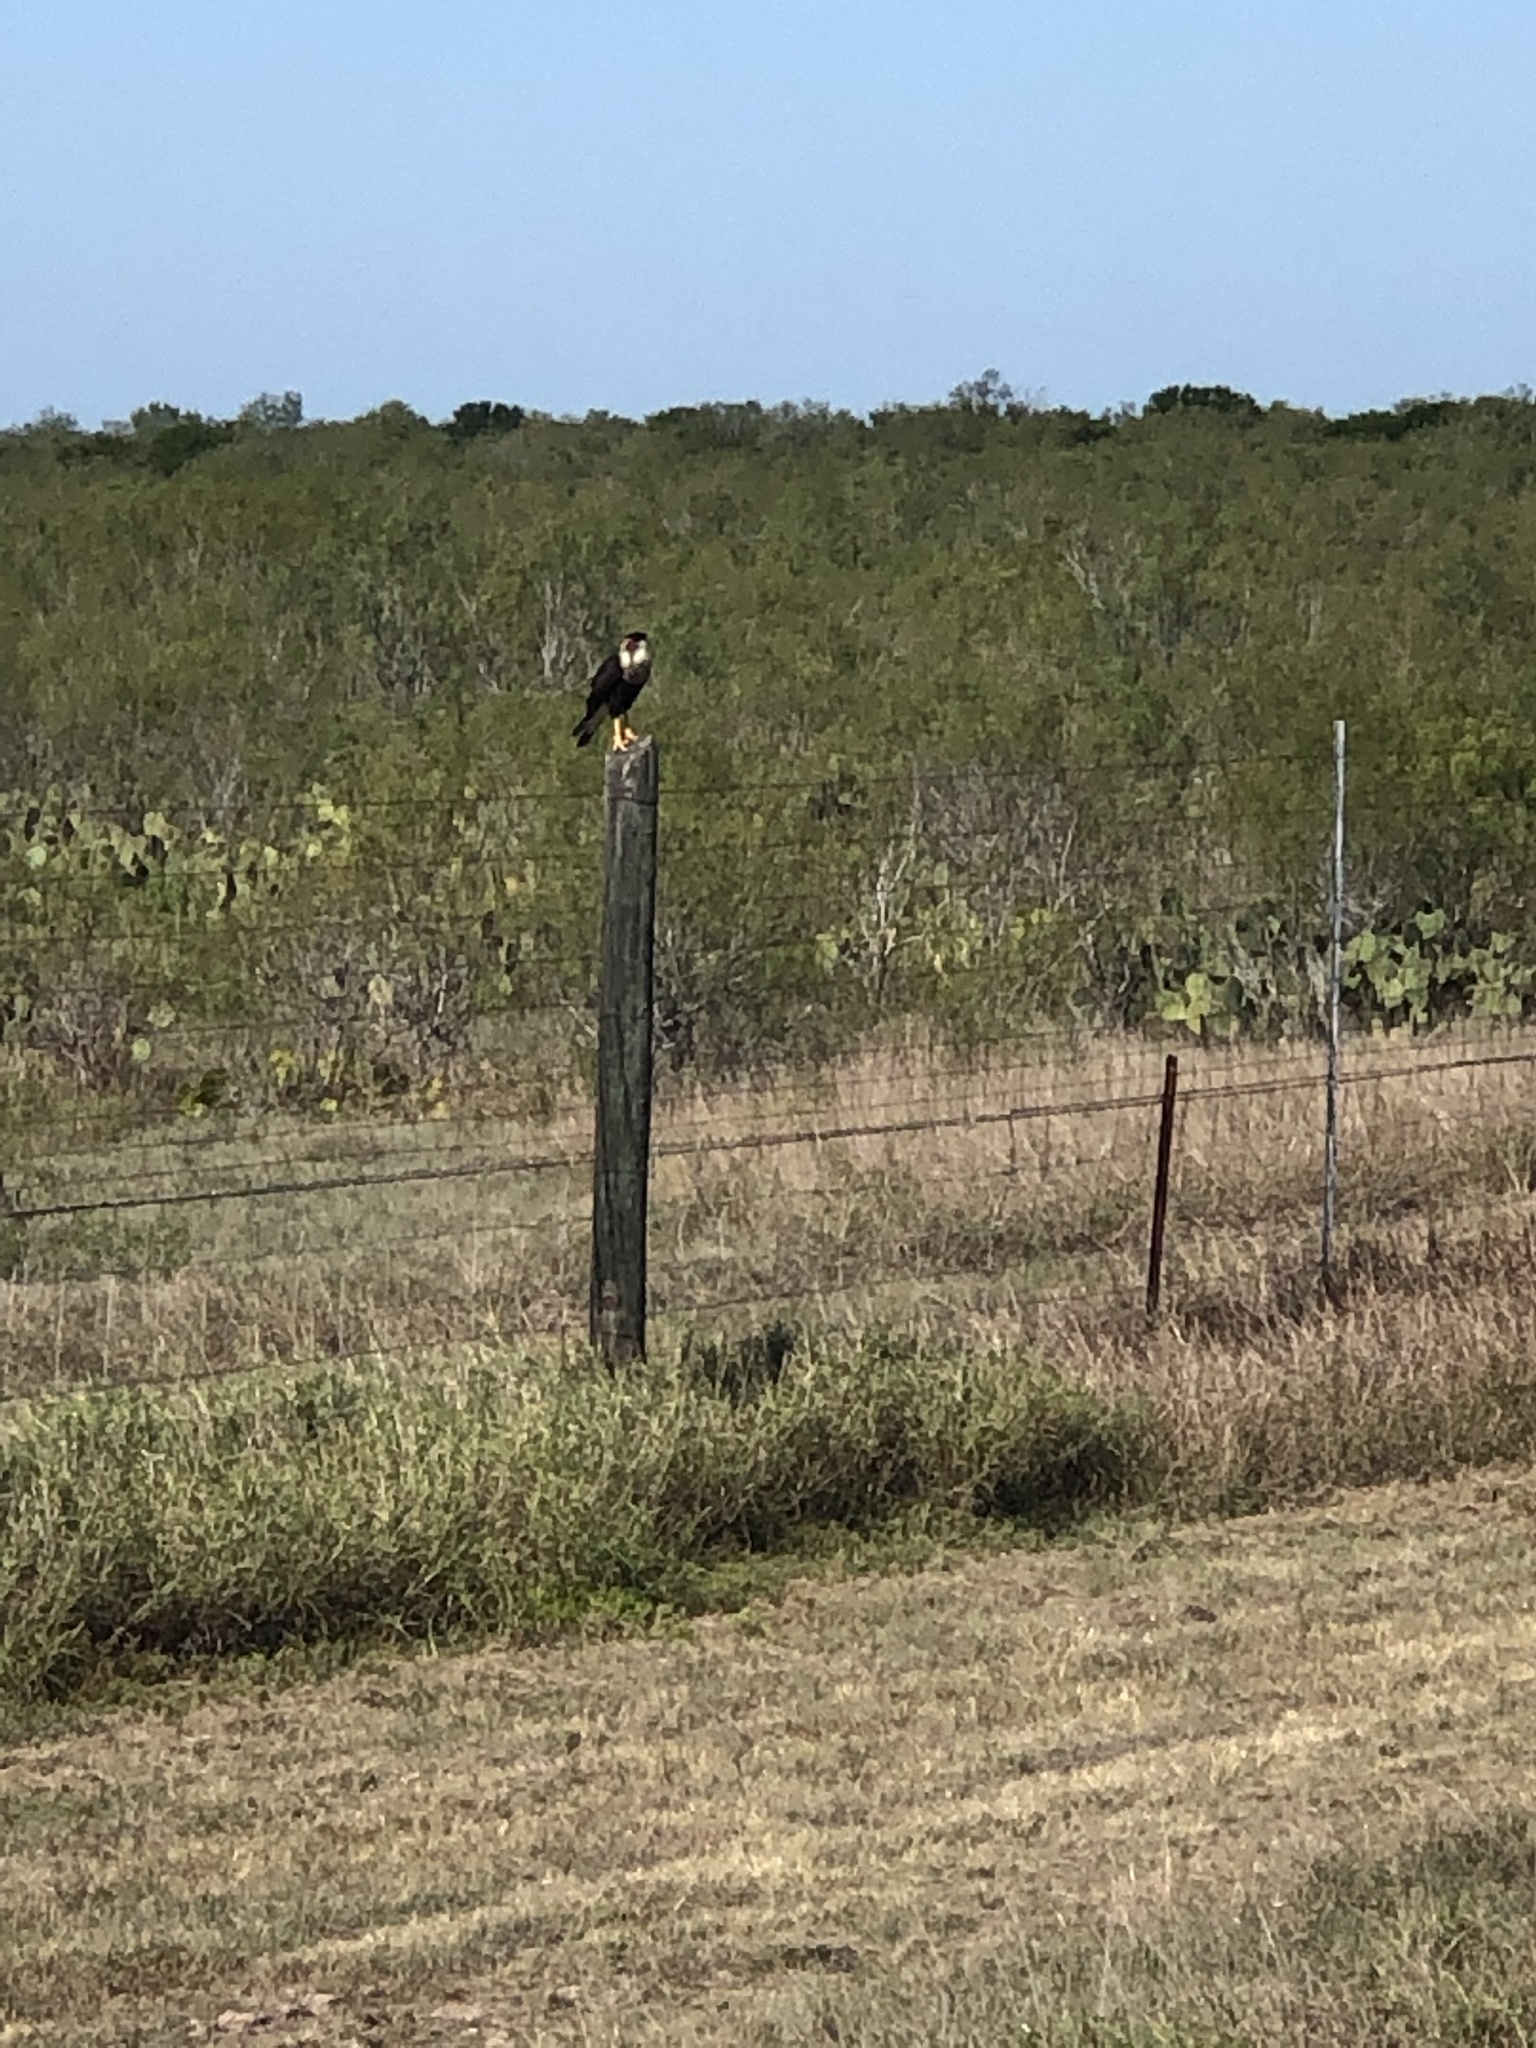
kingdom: Animalia
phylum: Chordata
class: Aves
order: Falconiformes
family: Falconidae
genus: Caracara
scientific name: Caracara plancus
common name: Southern caracara
